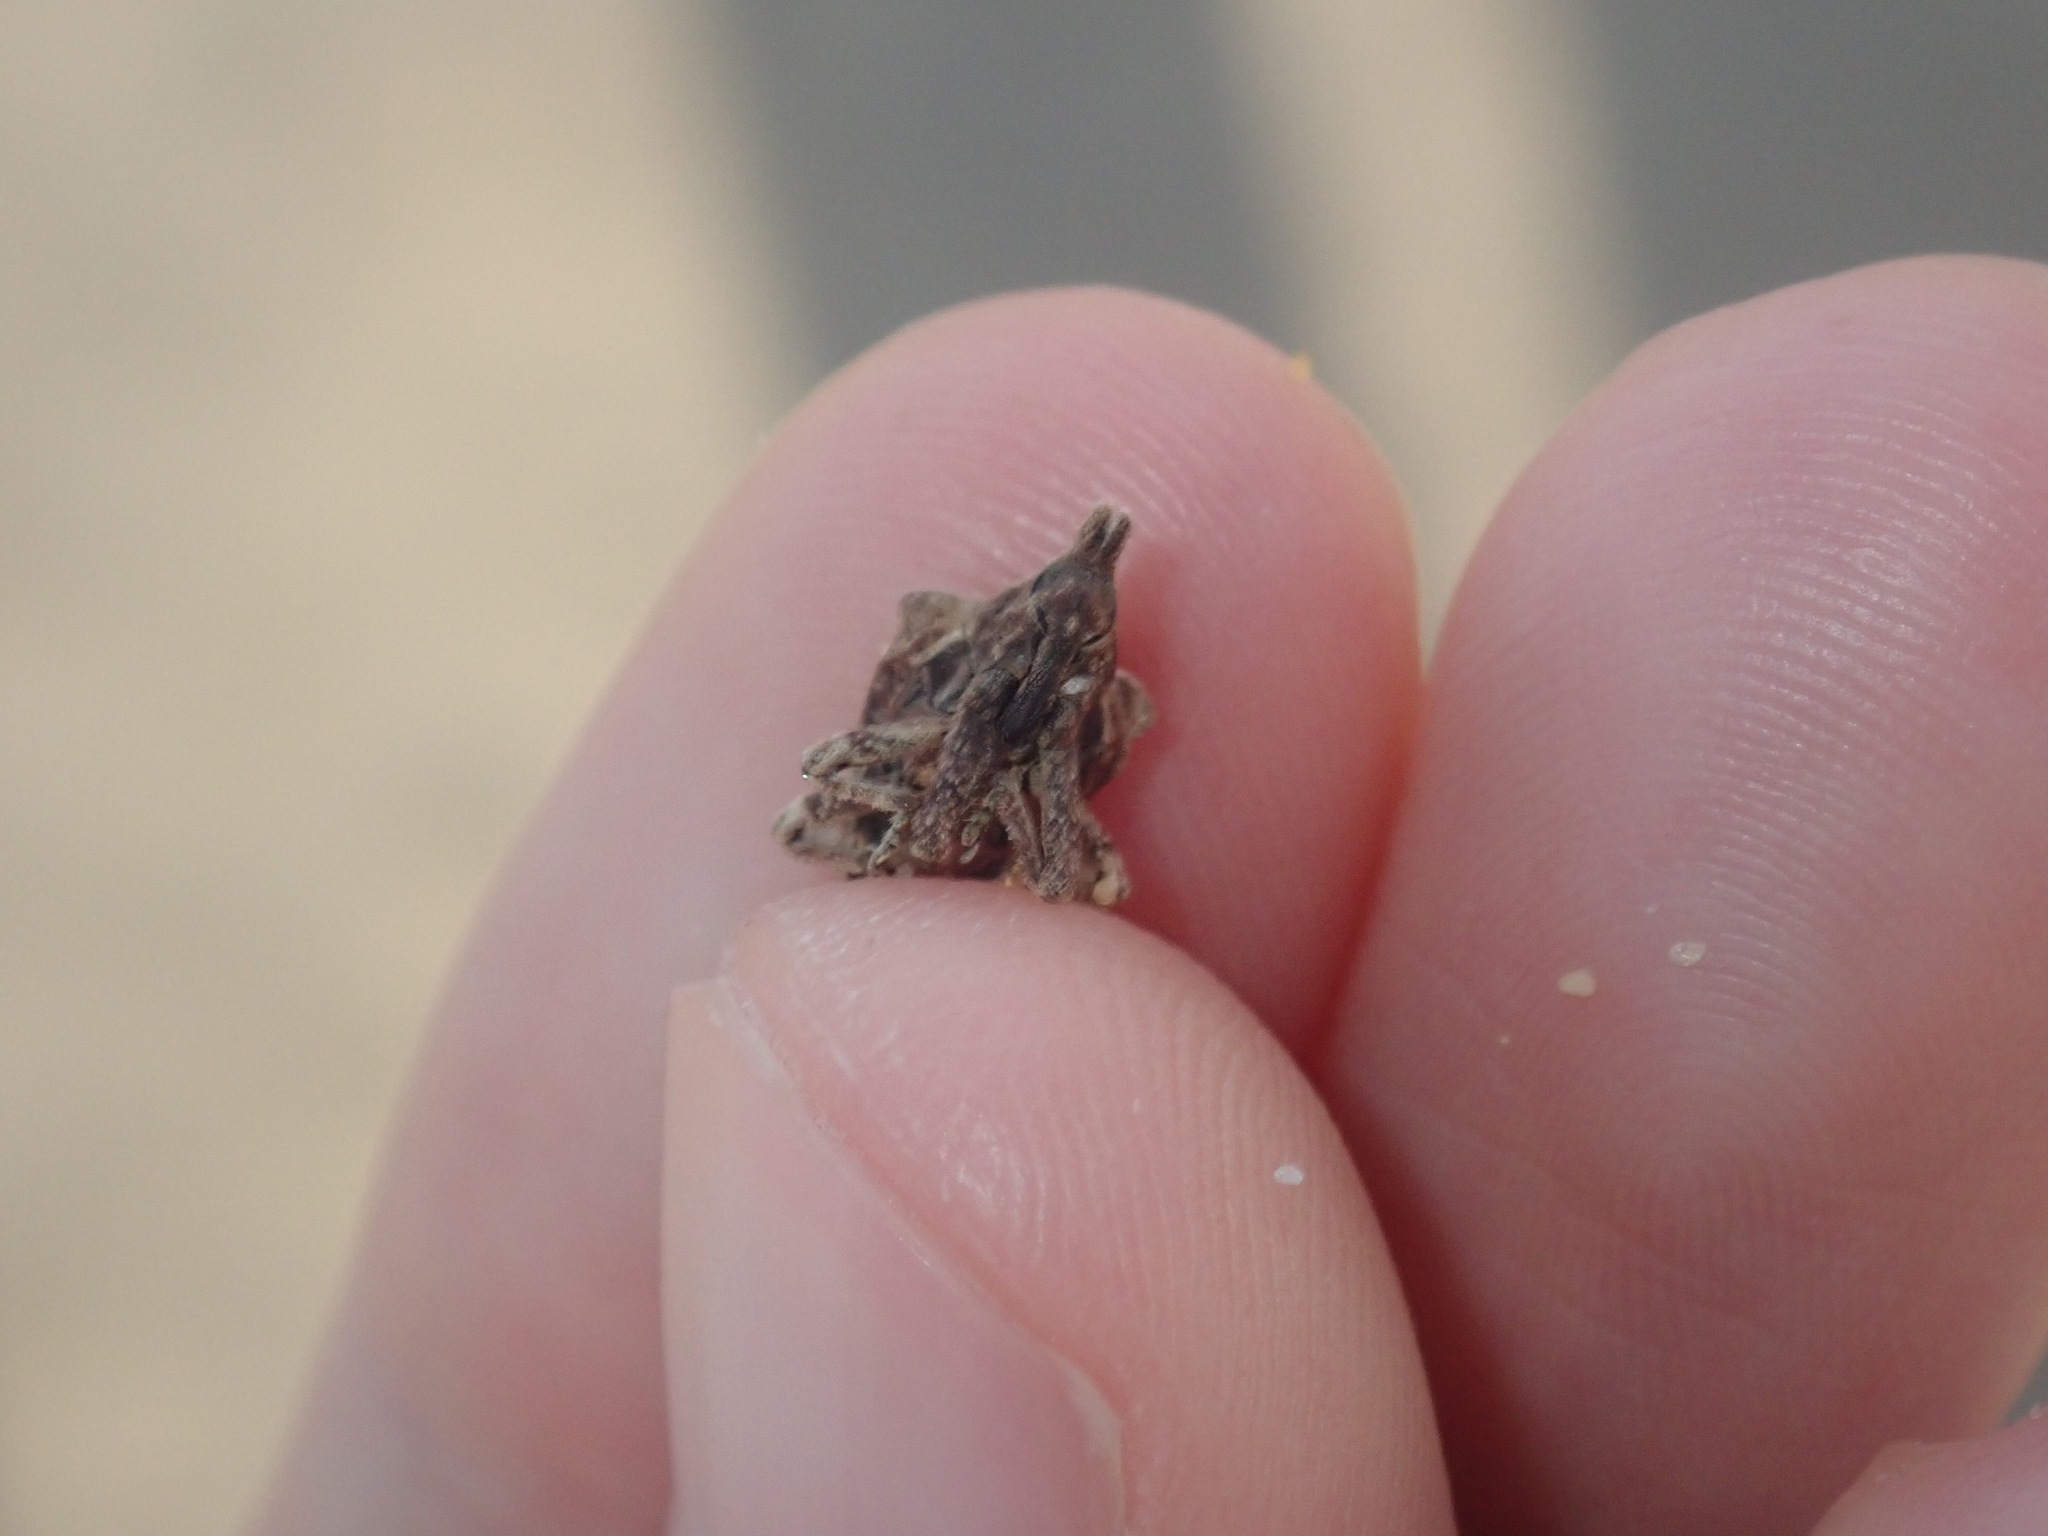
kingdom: Animalia
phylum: Arthropoda
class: Insecta
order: Coleoptera
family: Curculionidae
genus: Oemethylus
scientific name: Oemethylus
